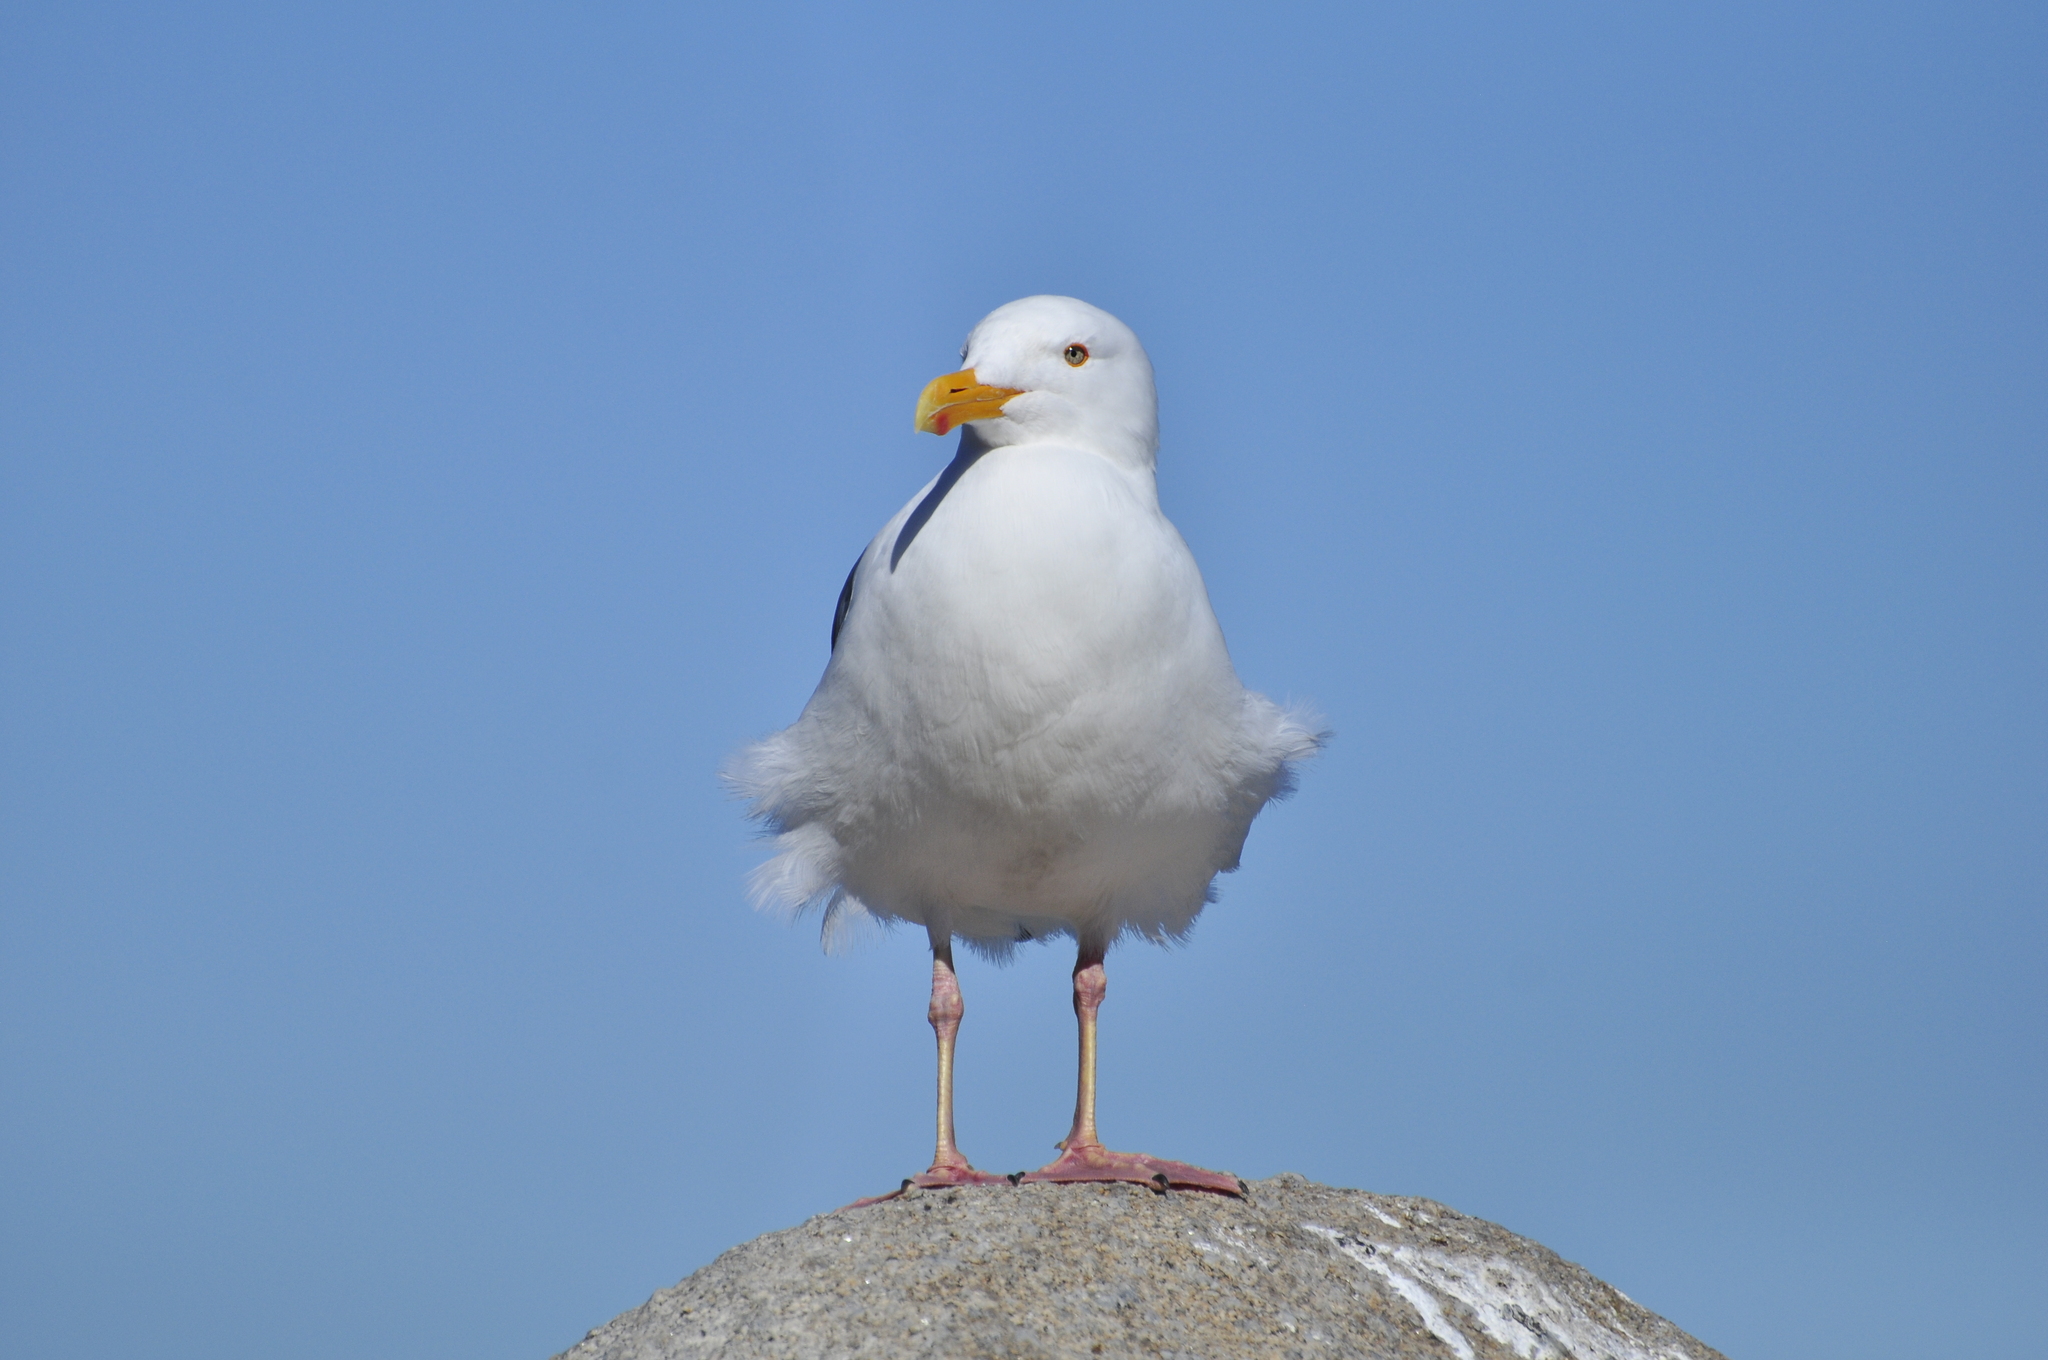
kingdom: Animalia
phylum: Chordata
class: Aves
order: Charadriiformes
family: Laridae
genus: Larus
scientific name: Larus occidentalis
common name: Western gull
